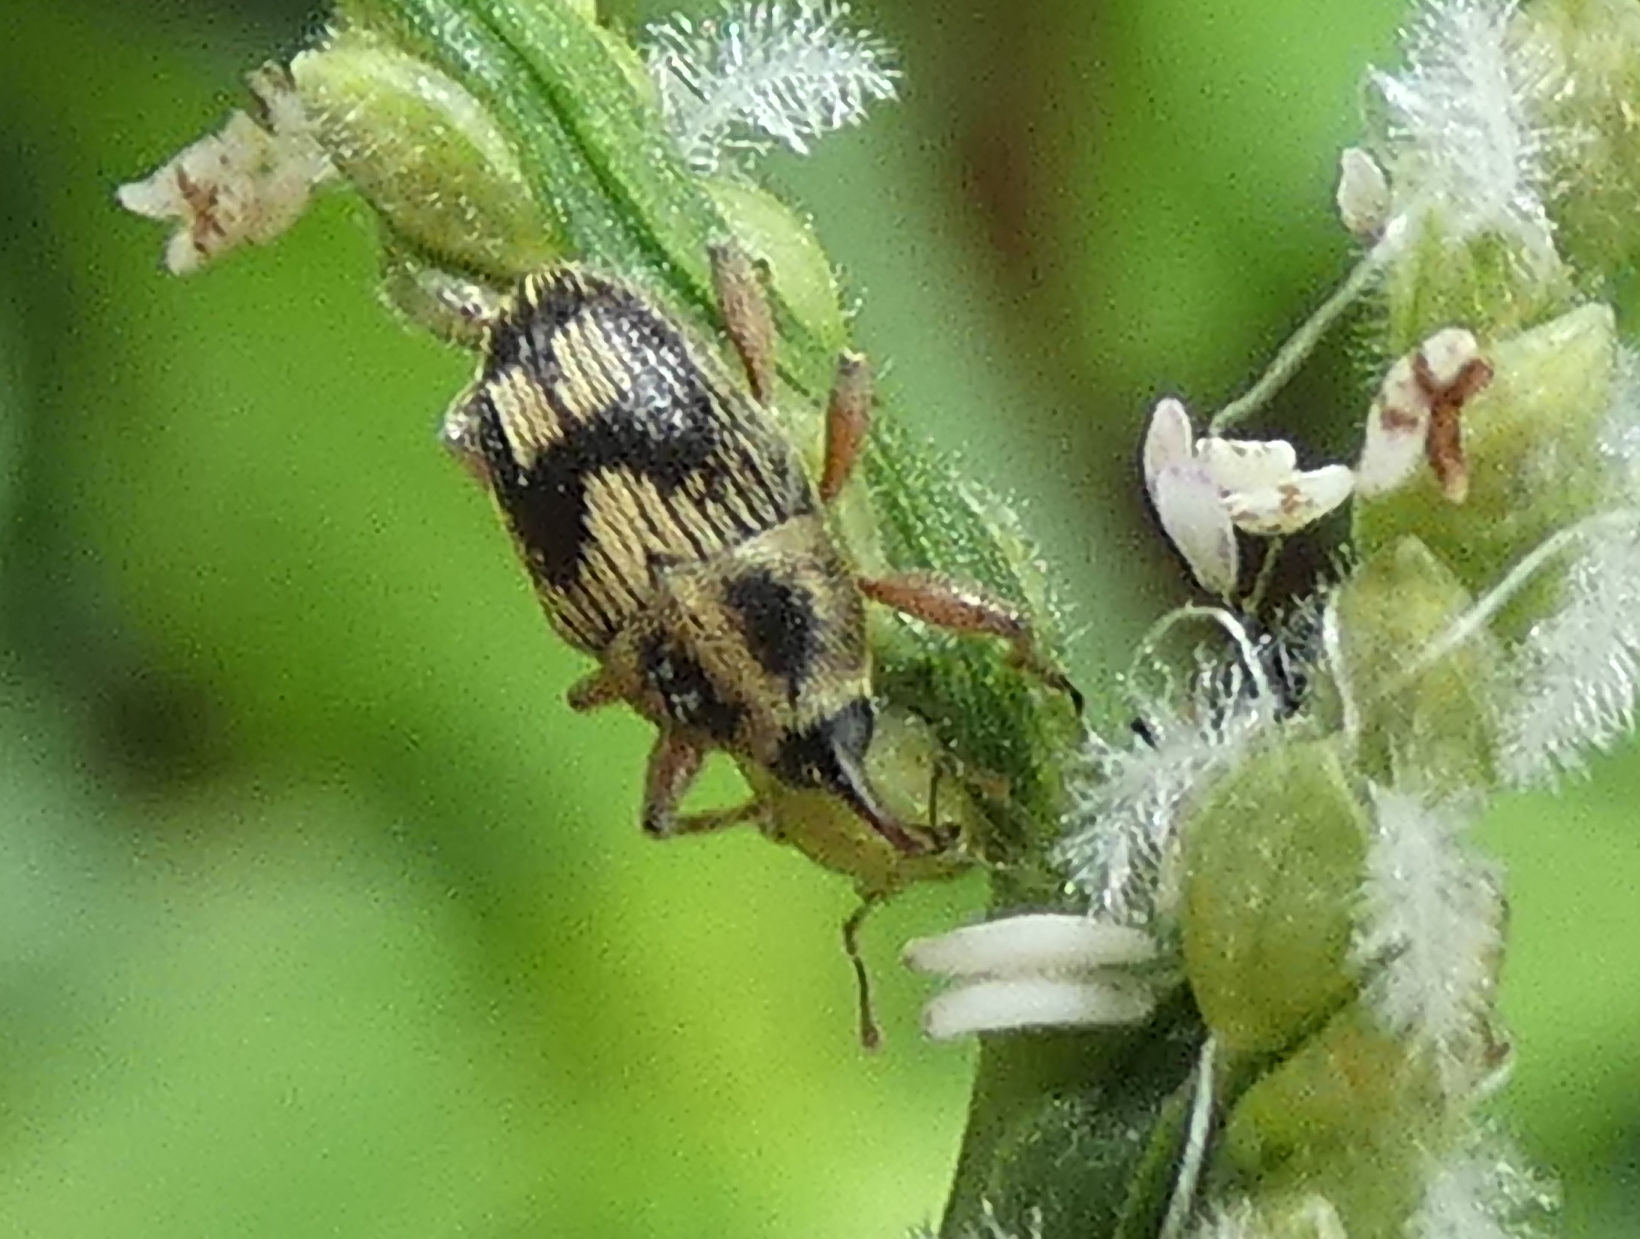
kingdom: Animalia
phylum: Arthropoda
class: Insecta
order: Coleoptera
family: Curculionidae
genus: Linogeraeus
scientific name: Linogeraeus
